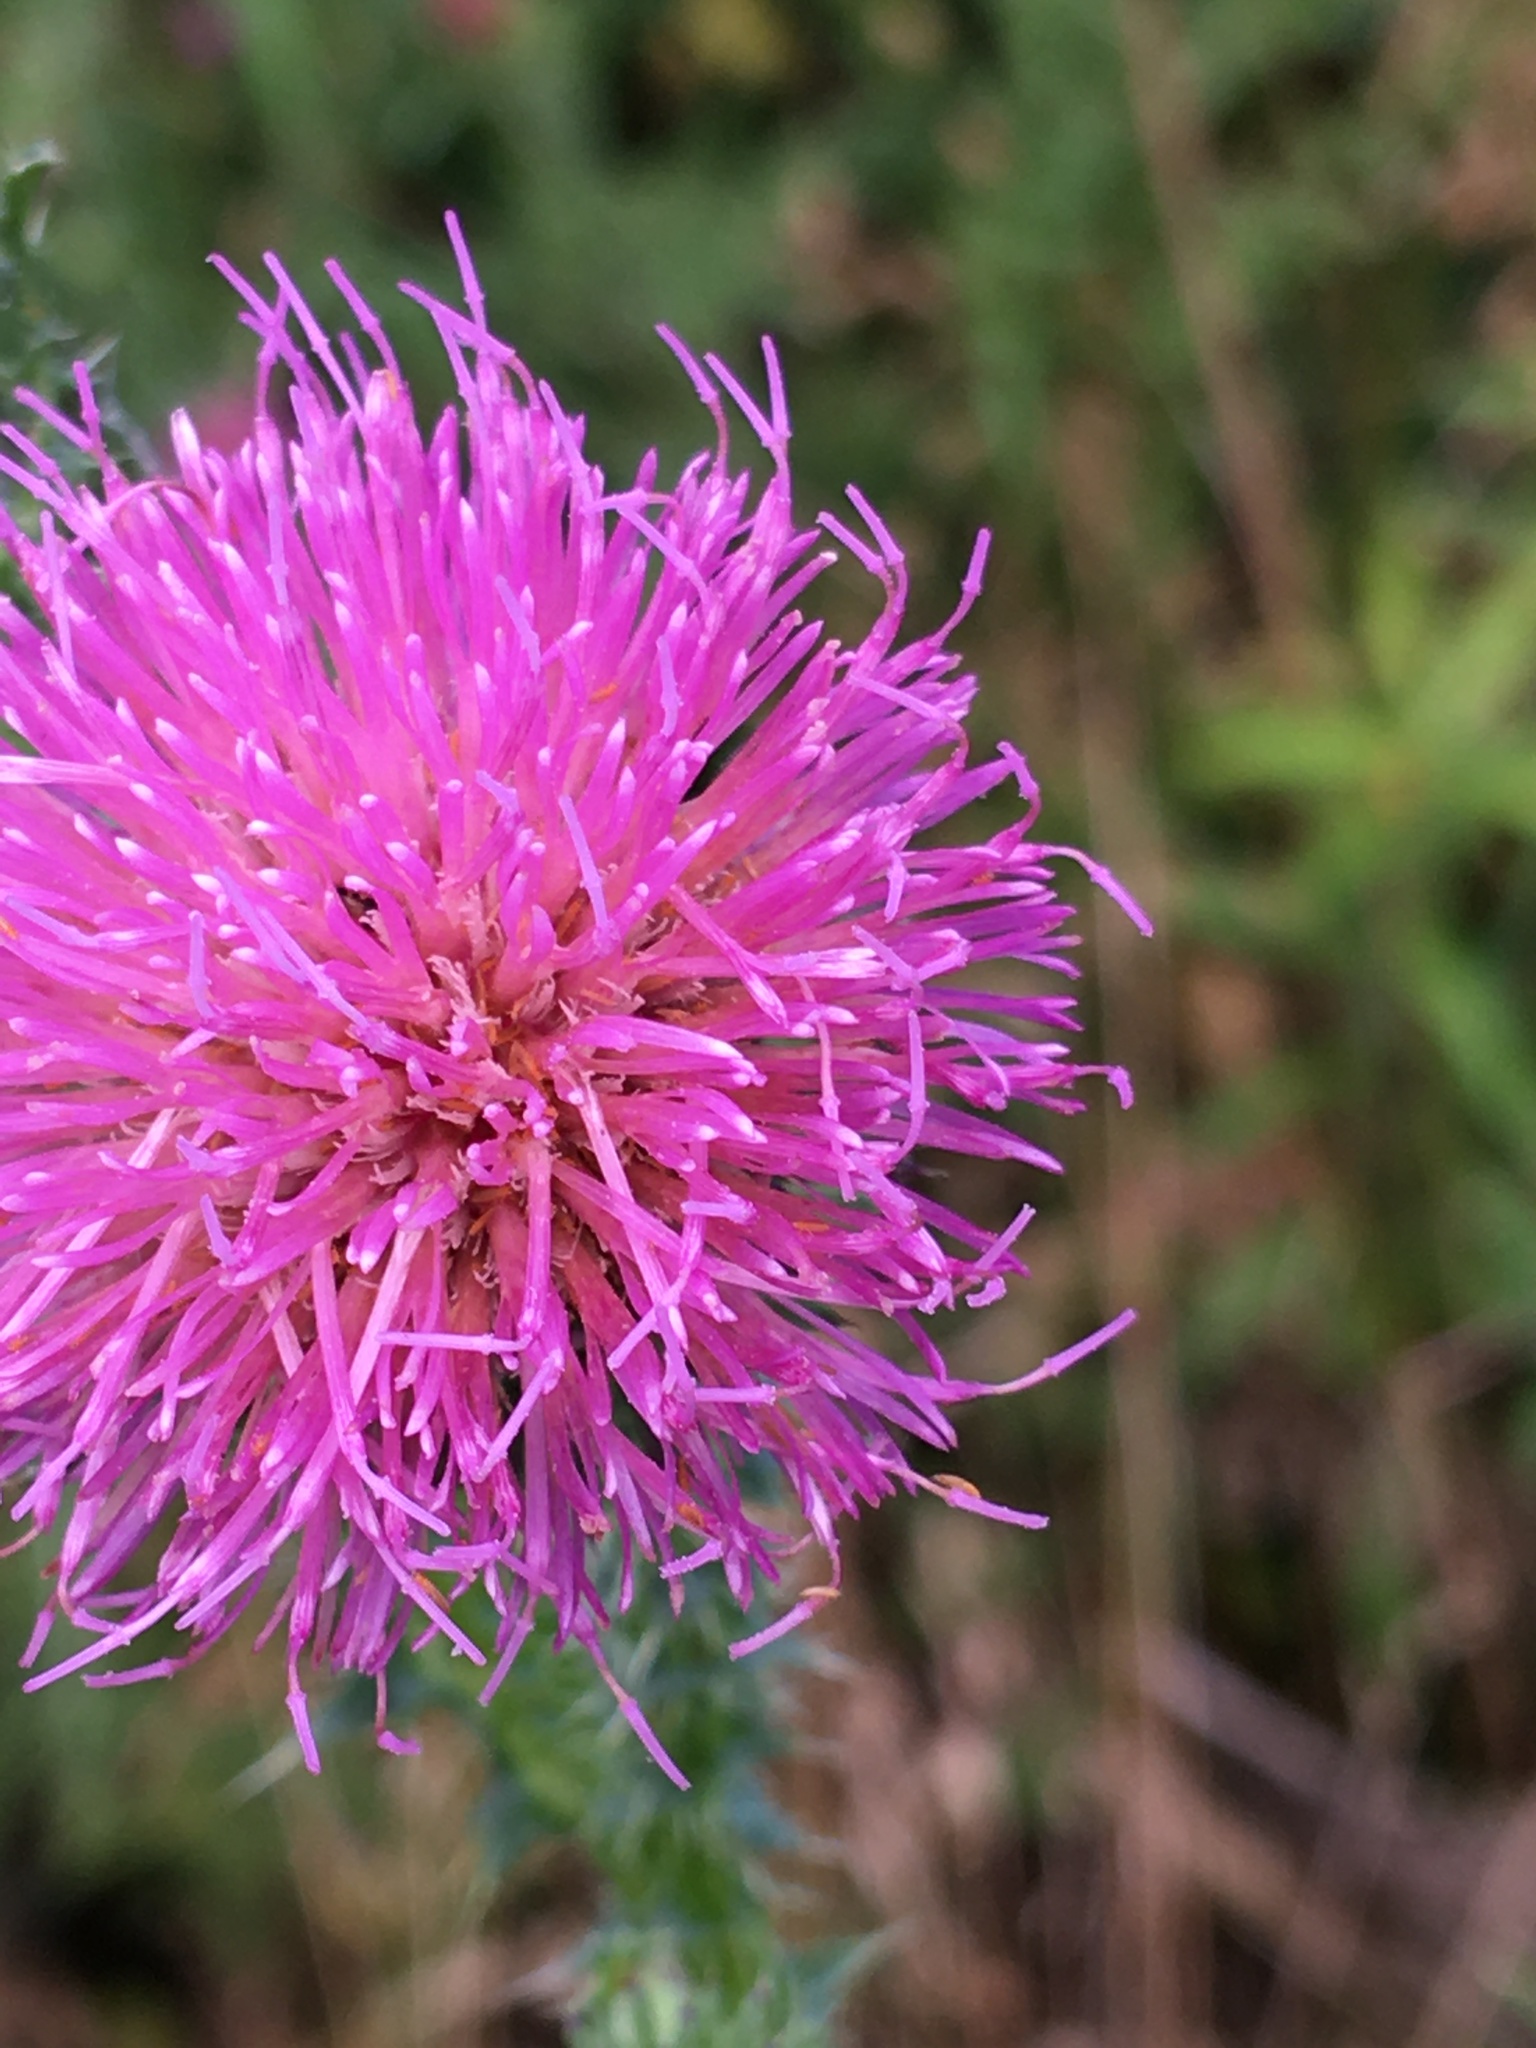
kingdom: Plantae
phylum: Tracheophyta
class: Magnoliopsida
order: Asterales
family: Asteraceae
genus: Carduus
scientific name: Carduus acanthoides
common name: Plumeless thistle
